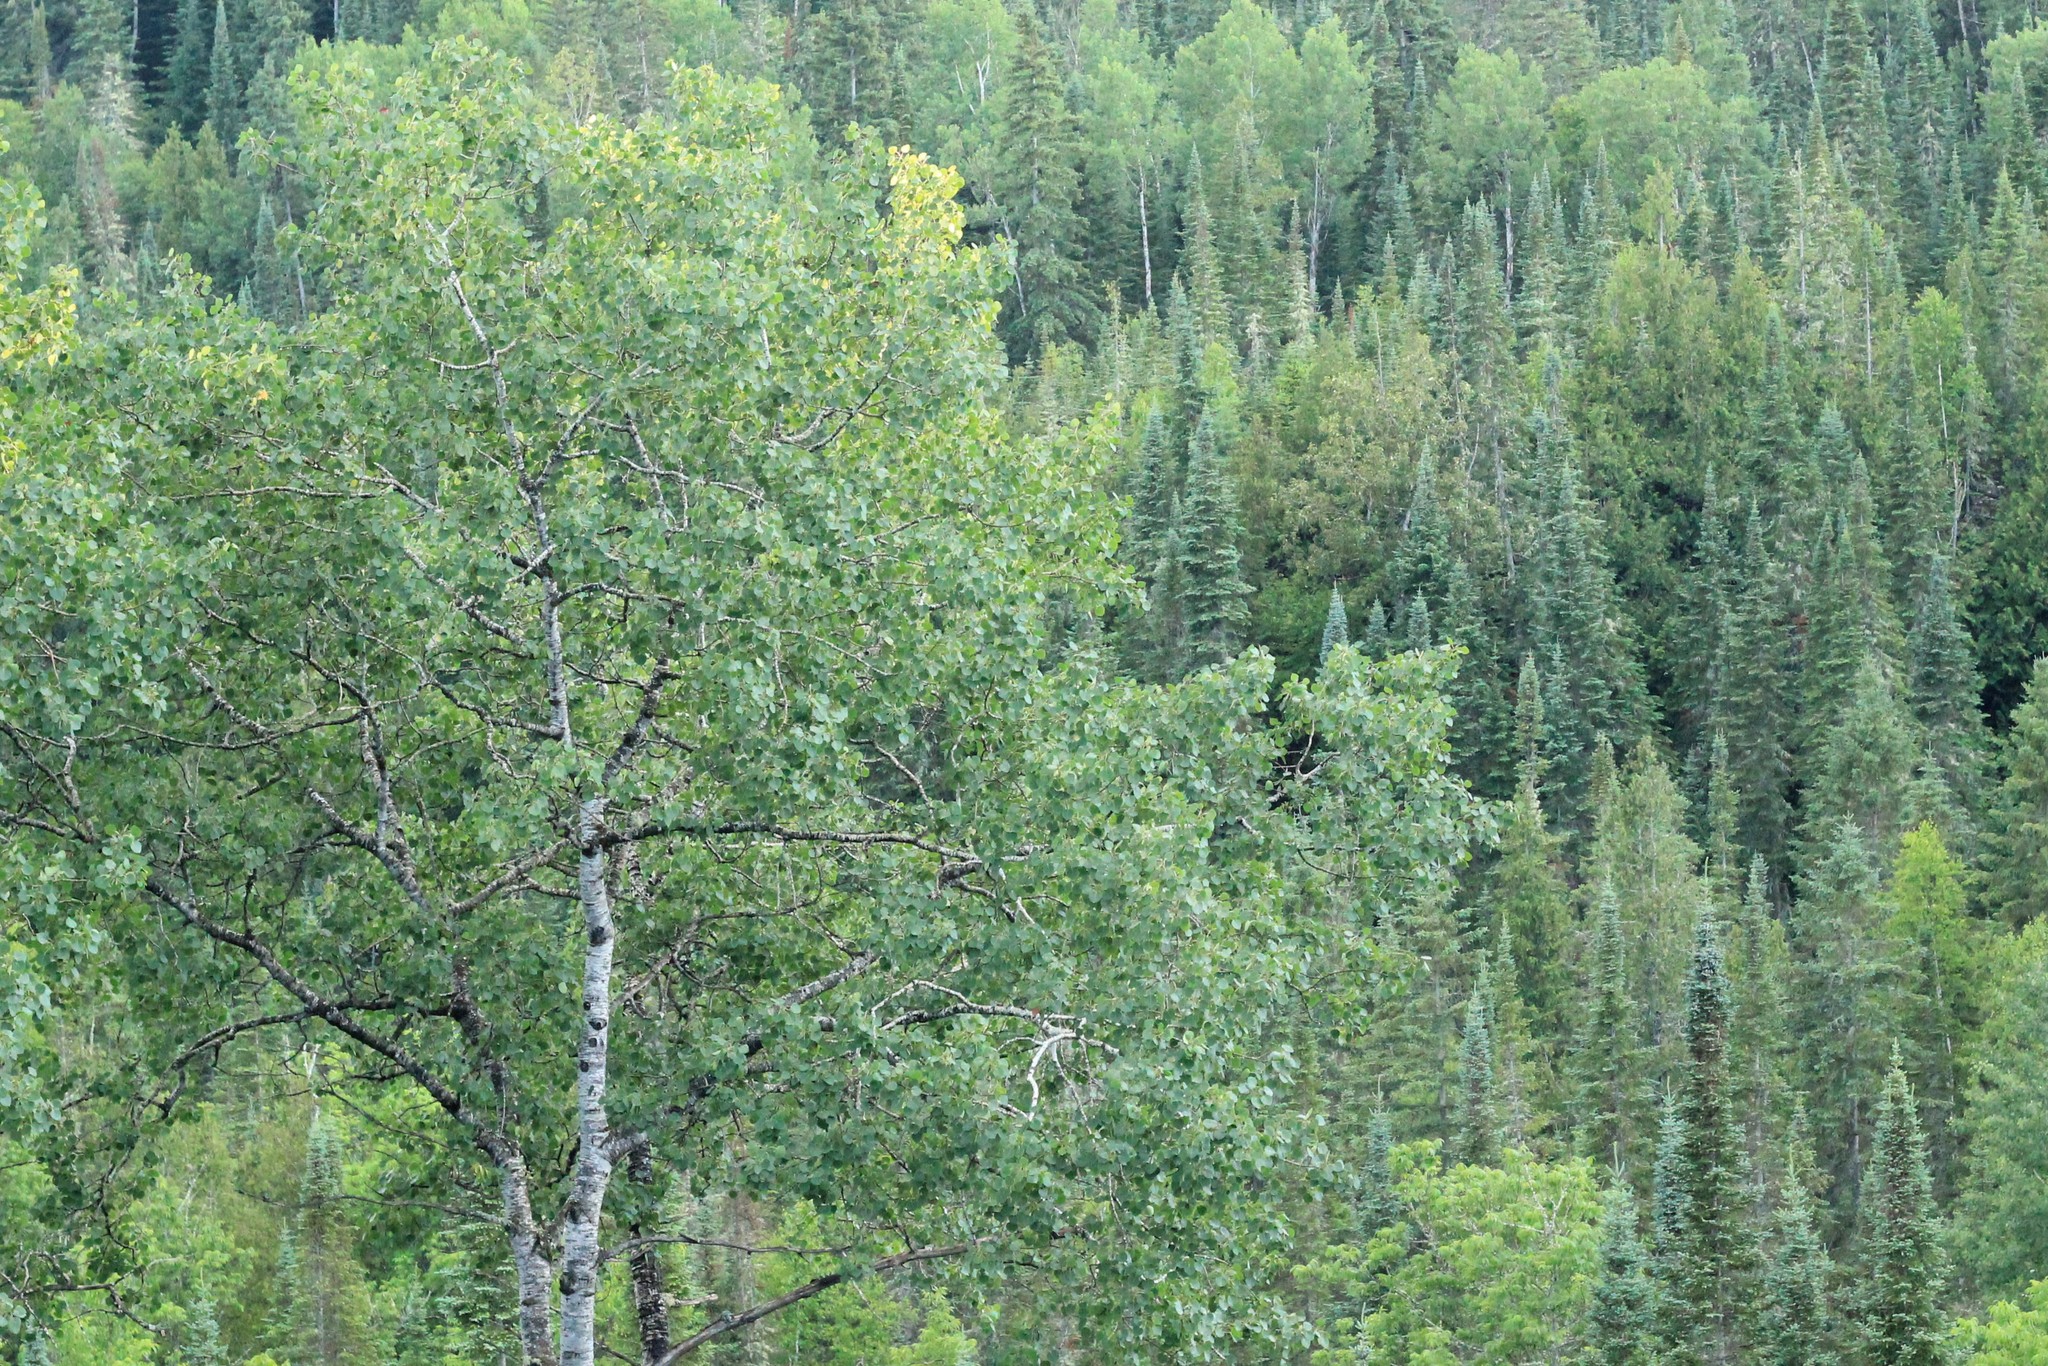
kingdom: Plantae
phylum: Tracheophyta
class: Magnoliopsida
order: Malpighiales
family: Salicaceae
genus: Populus
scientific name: Populus tremuloides
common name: Quaking aspen
